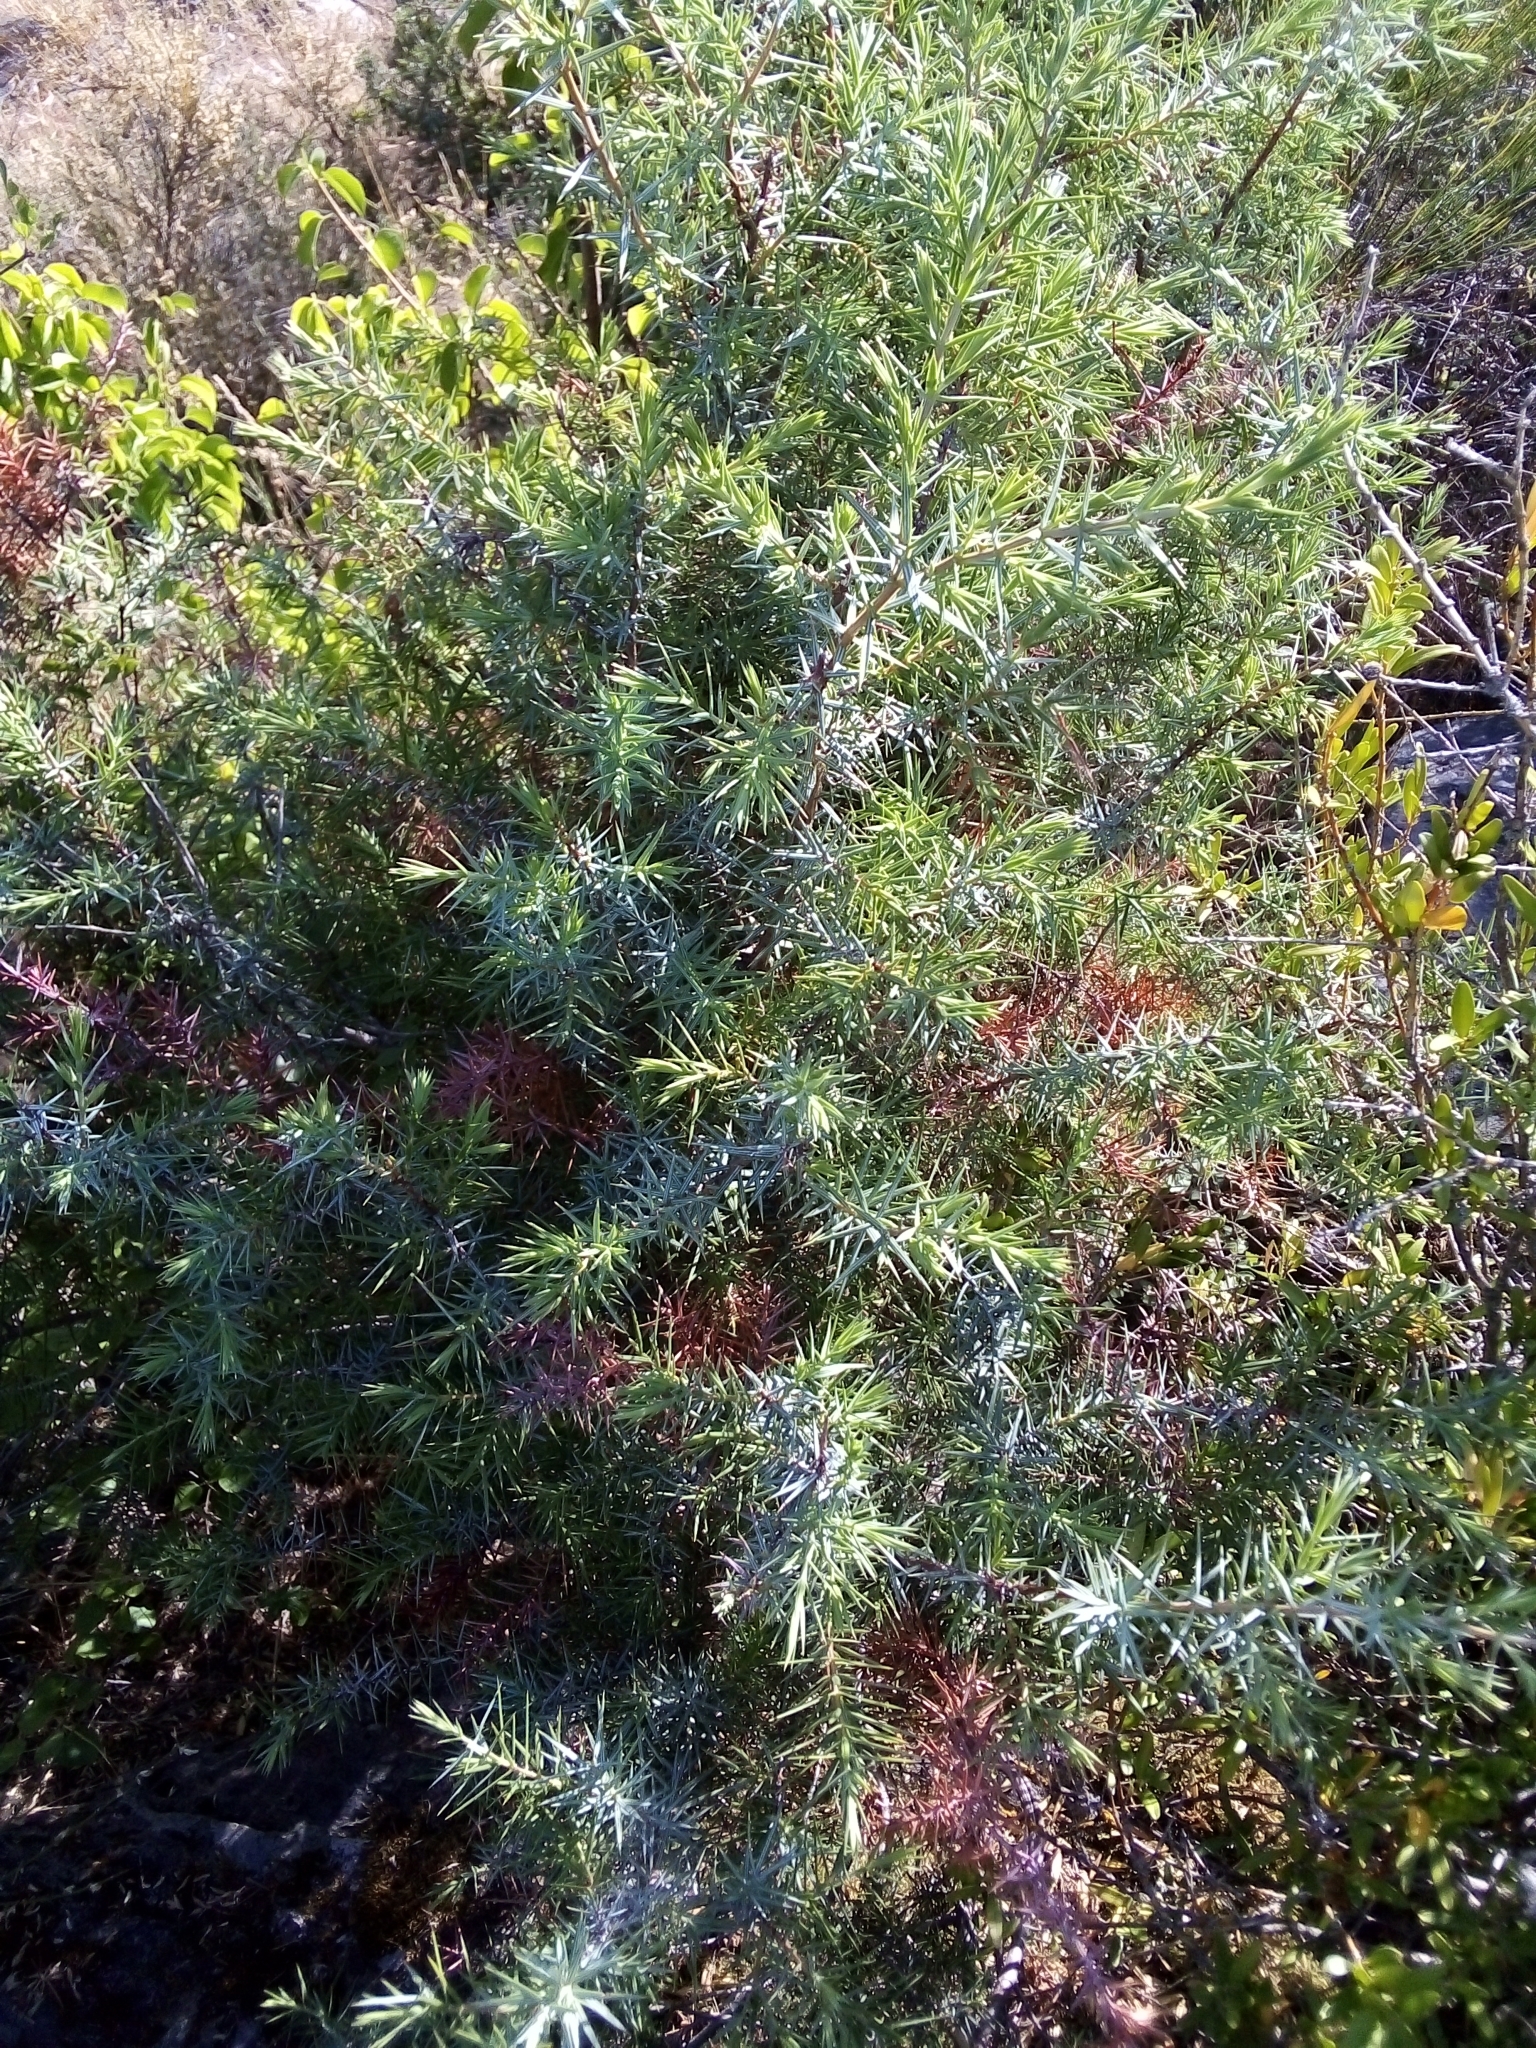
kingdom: Plantae
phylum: Tracheophyta
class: Pinopsida
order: Pinales
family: Cupressaceae
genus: Juniperus
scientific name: Juniperus oxycedrus
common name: Prickly juniper
